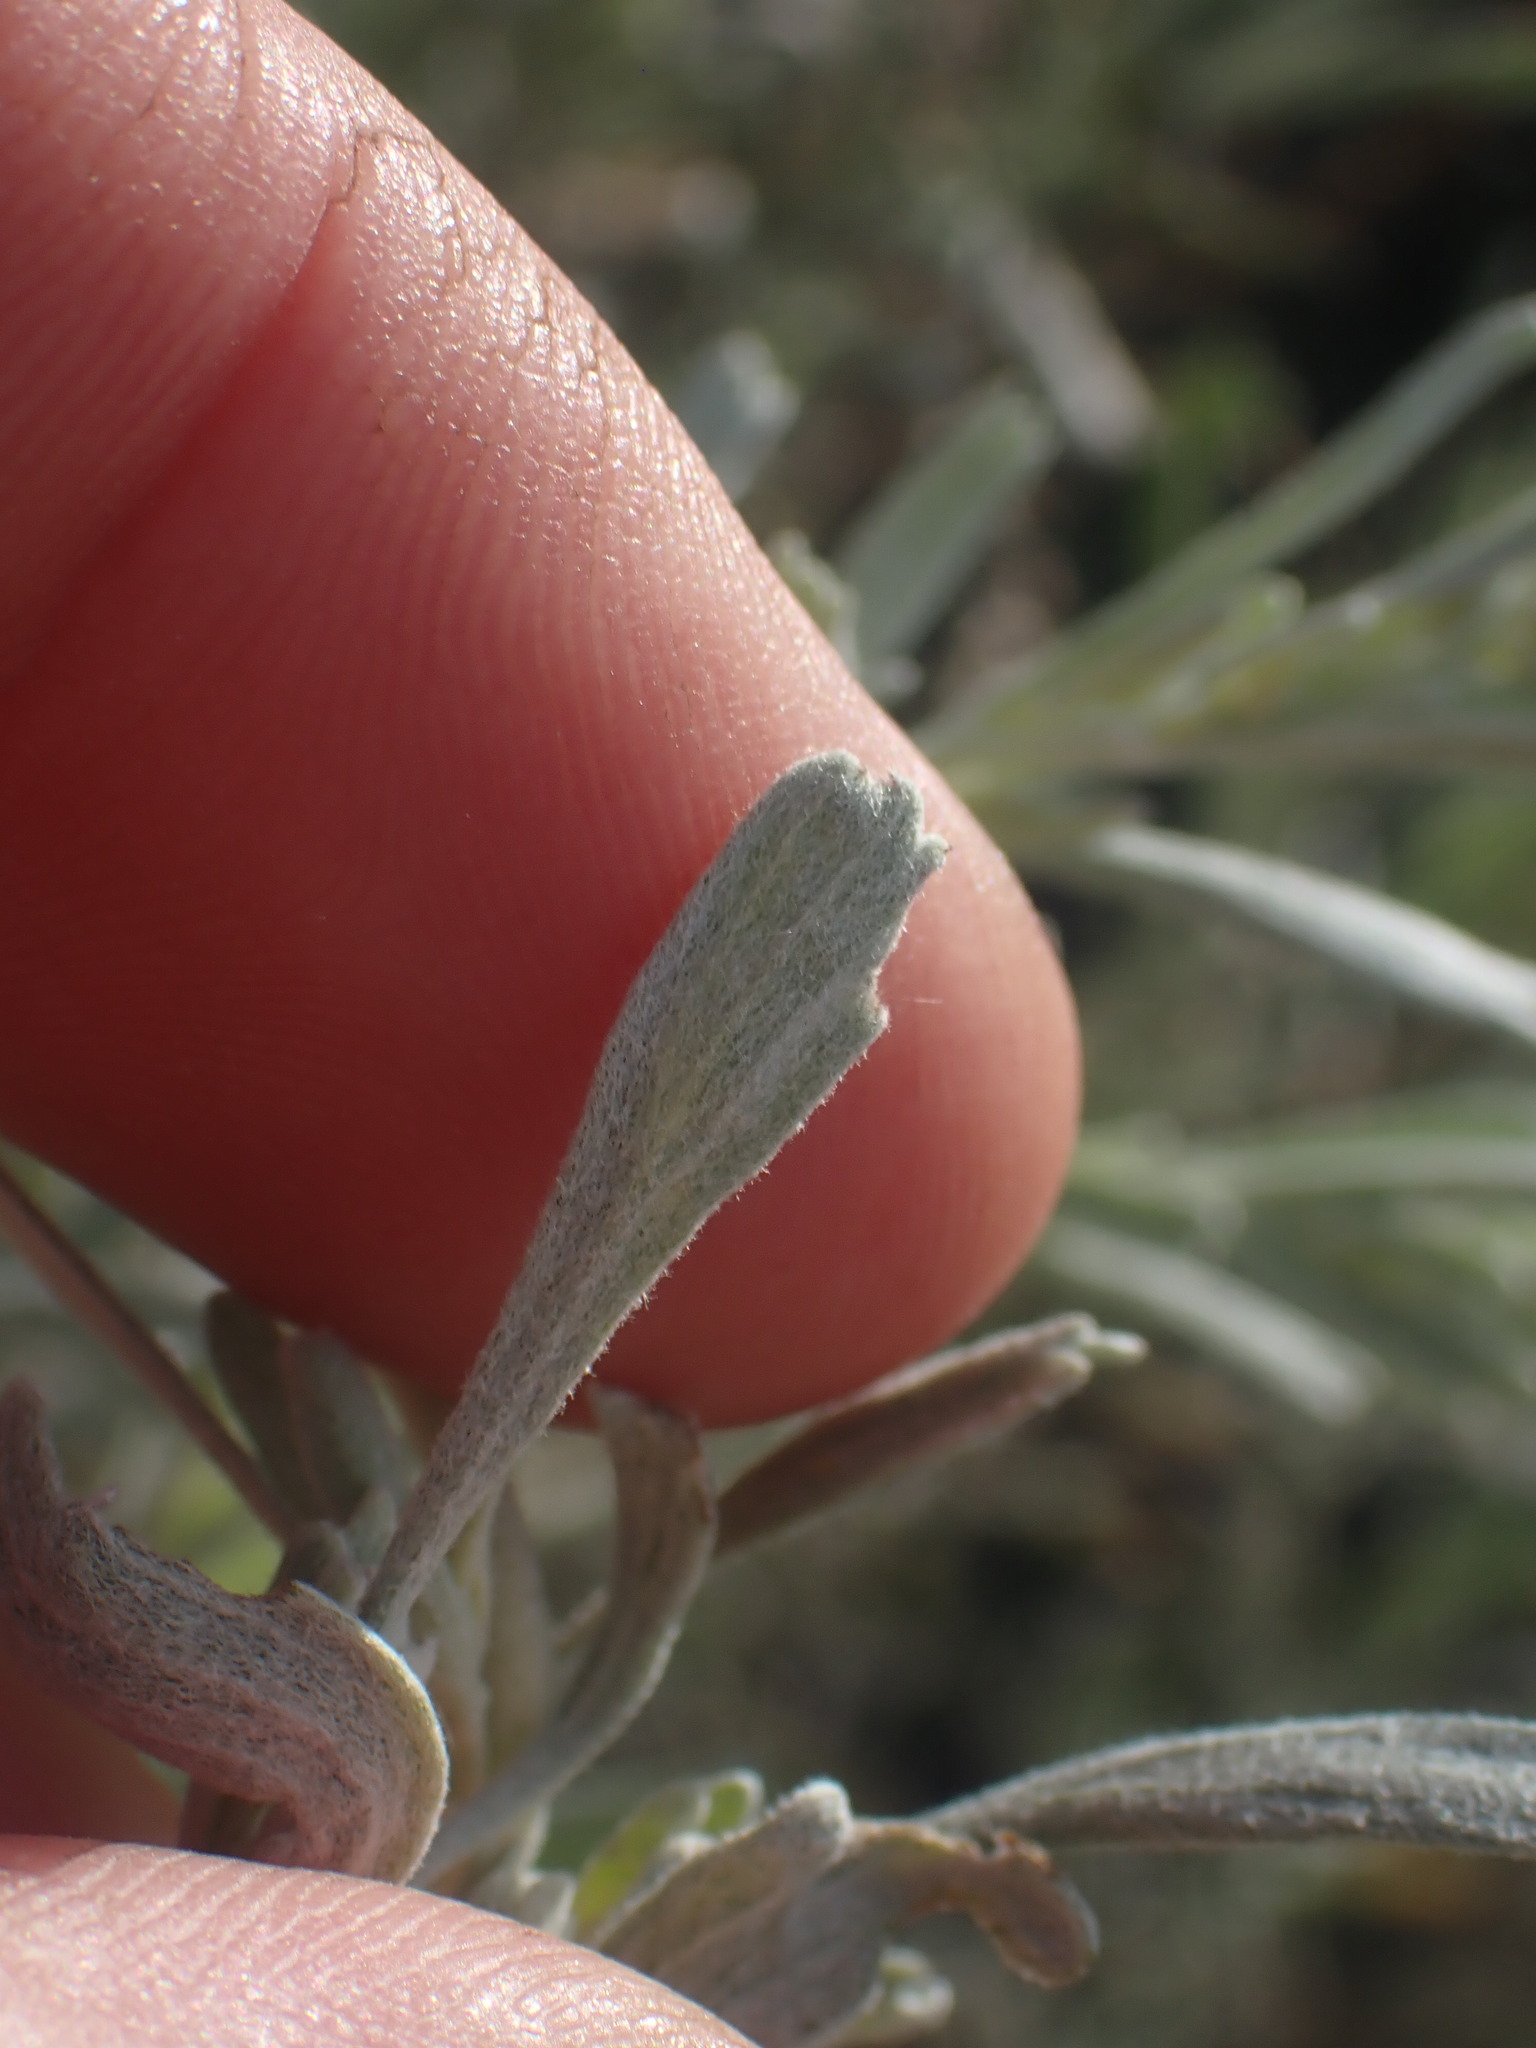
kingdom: Plantae
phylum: Tracheophyta
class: Magnoliopsida
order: Asterales
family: Asteraceae
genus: Artemisia
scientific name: Artemisia tridentata
